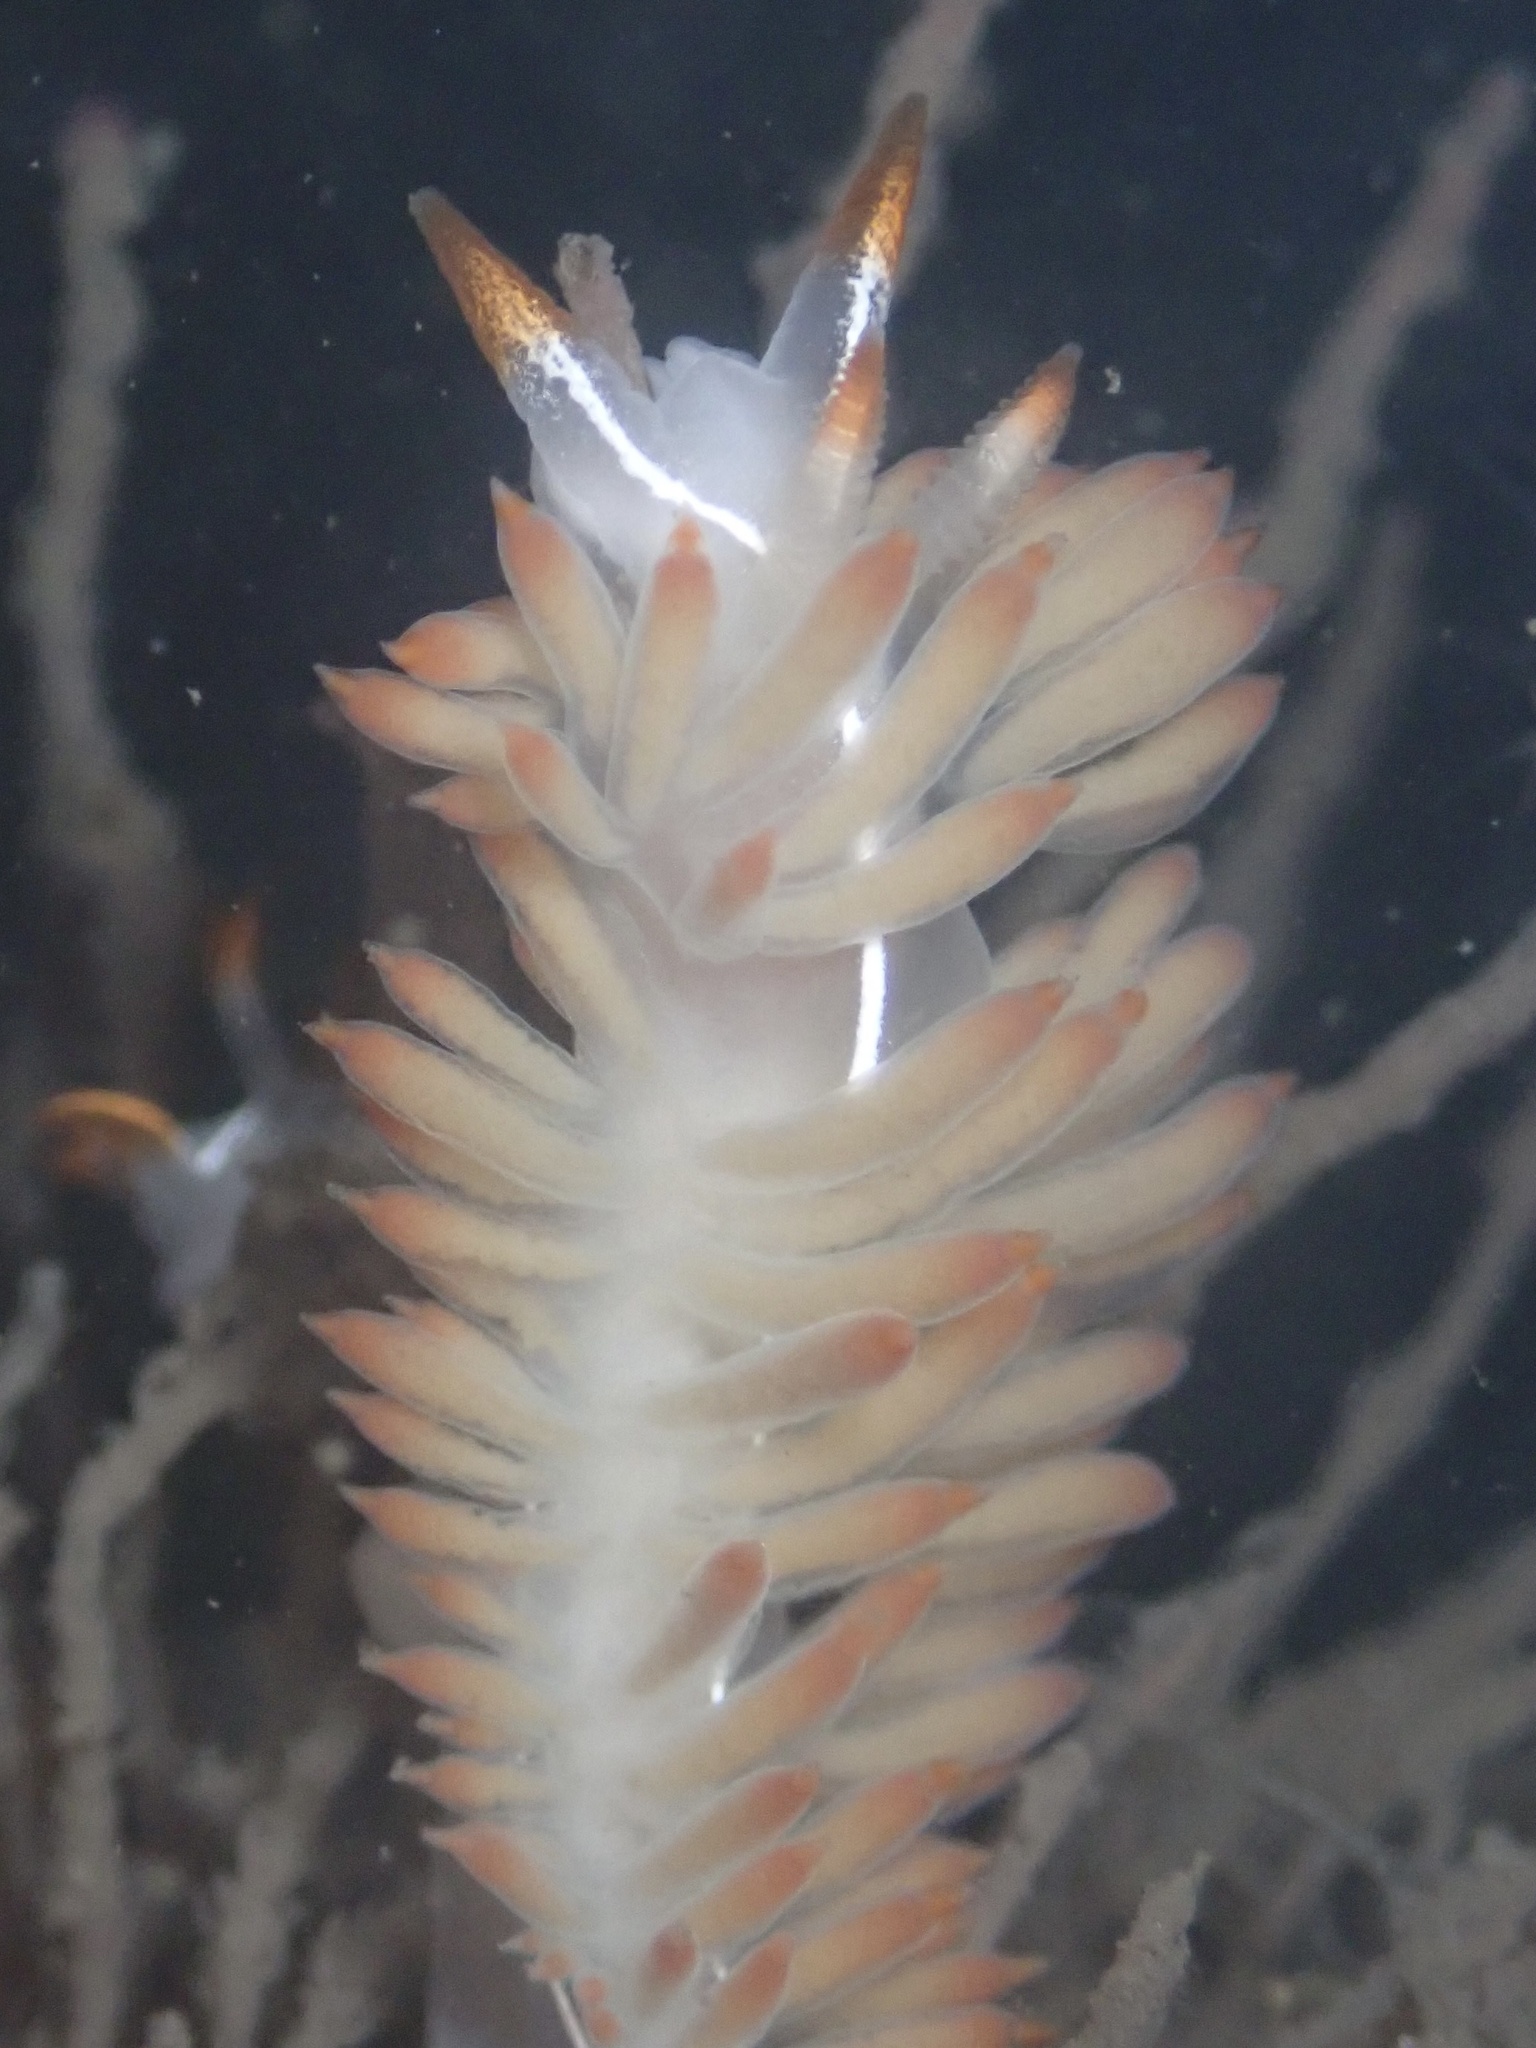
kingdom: Animalia
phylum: Mollusca
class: Gastropoda
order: Nudibranchia
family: Coryphellidae
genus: Coryphella
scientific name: Coryphella trilineata
